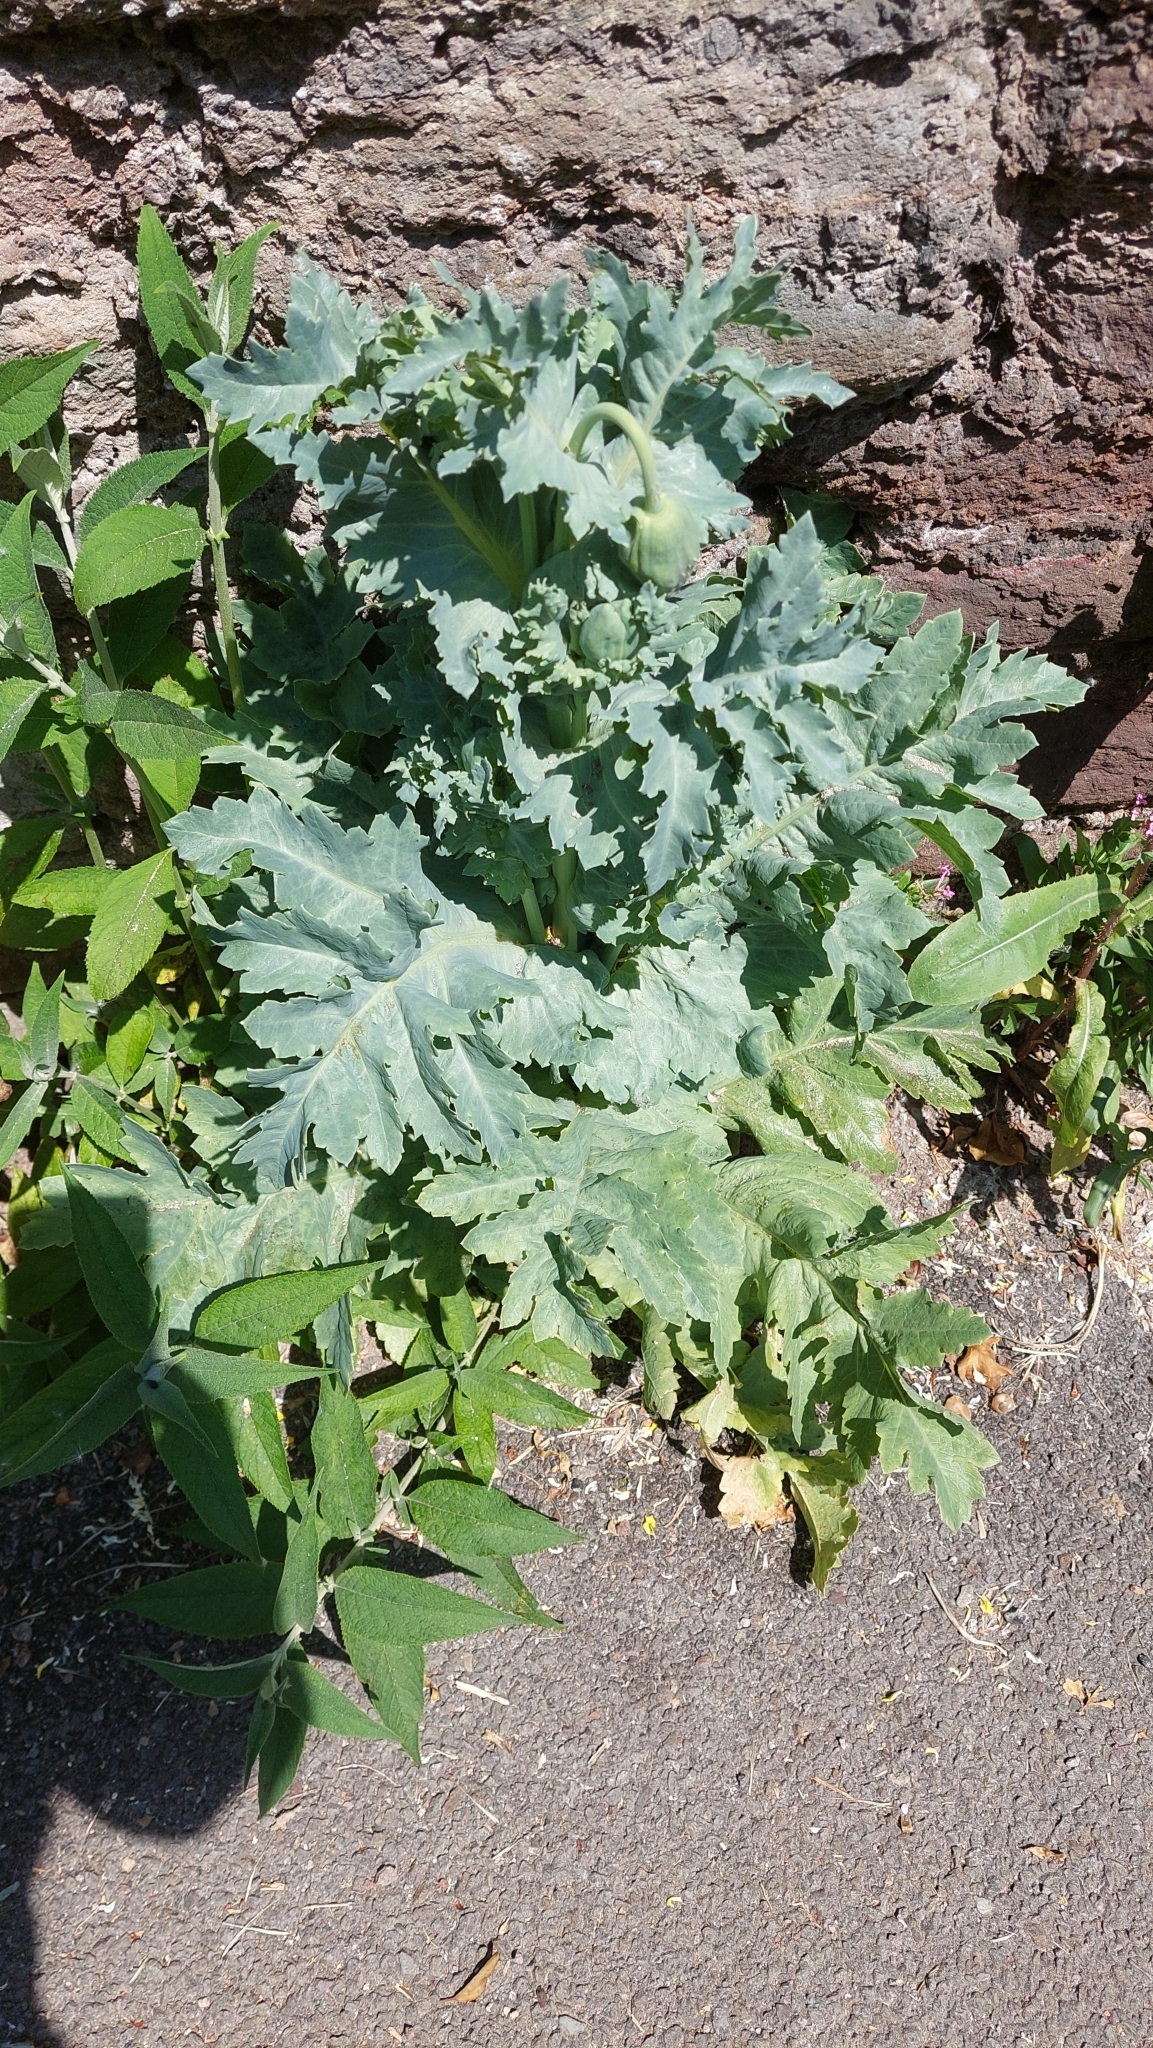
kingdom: Plantae
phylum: Tracheophyta
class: Magnoliopsida
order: Ranunculales
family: Papaveraceae
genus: Papaver
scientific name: Papaver somniferum
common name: Opium poppy
